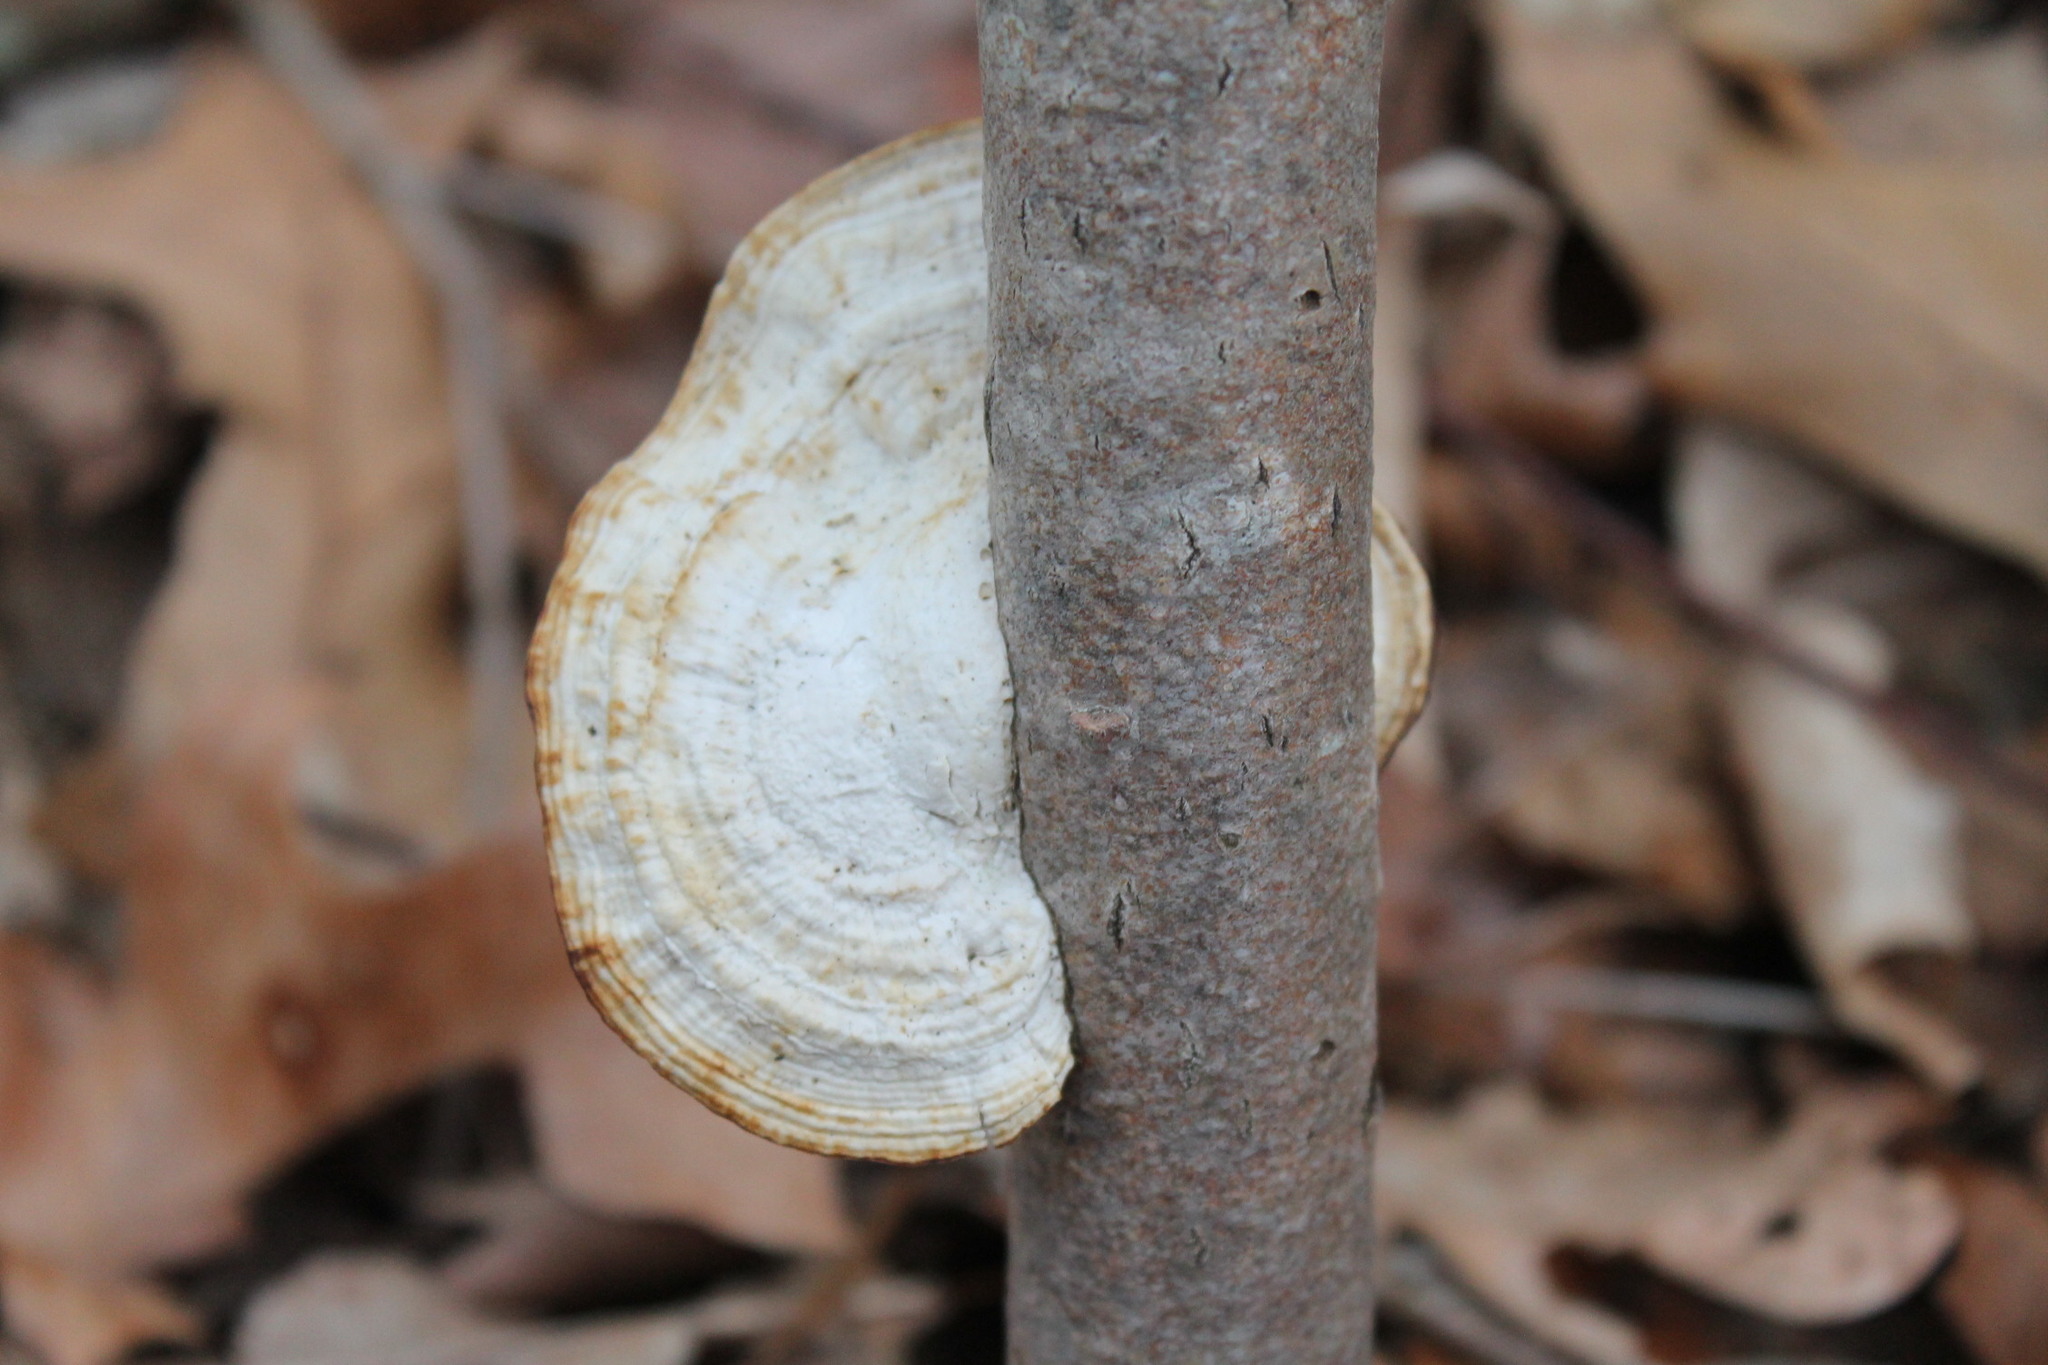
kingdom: Fungi
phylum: Basidiomycota
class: Agaricomycetes
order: Polyporales
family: Polyporaceae
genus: Daedaleopsis
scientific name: Daedaleopsis confragosa
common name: Blushing bracket
